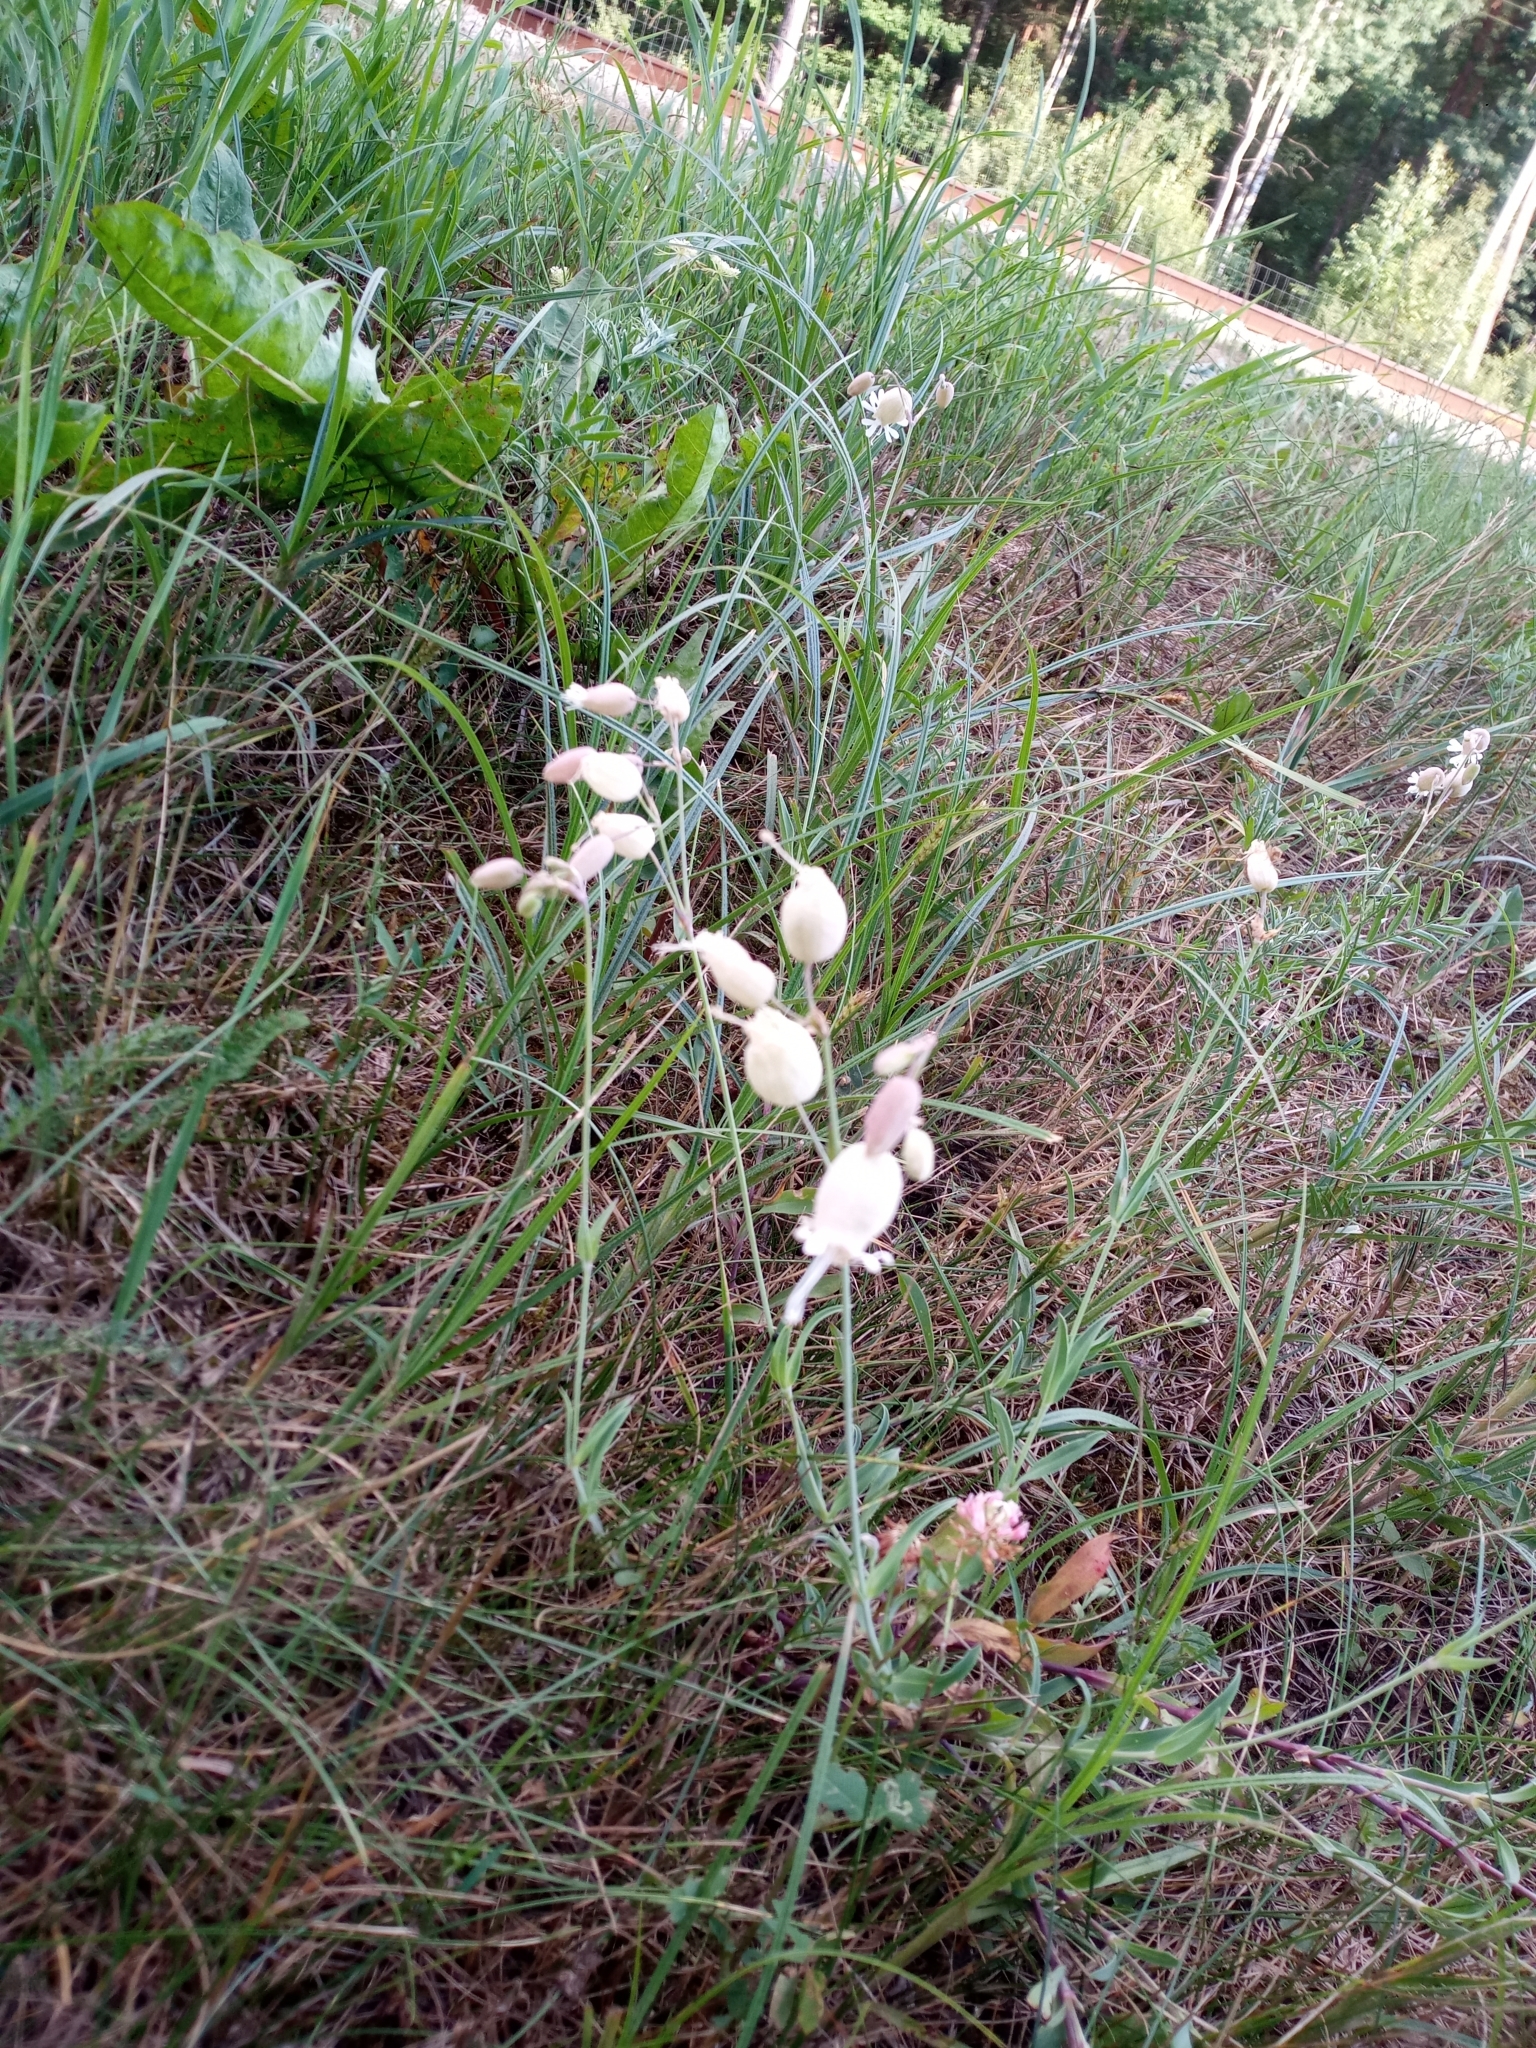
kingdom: Plantae
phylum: Tracheophyta
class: Magnoliopsida
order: Caryophyllales
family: Caryophyllaceae
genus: Silene
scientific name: Silene vulgaris
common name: Bladder campion
